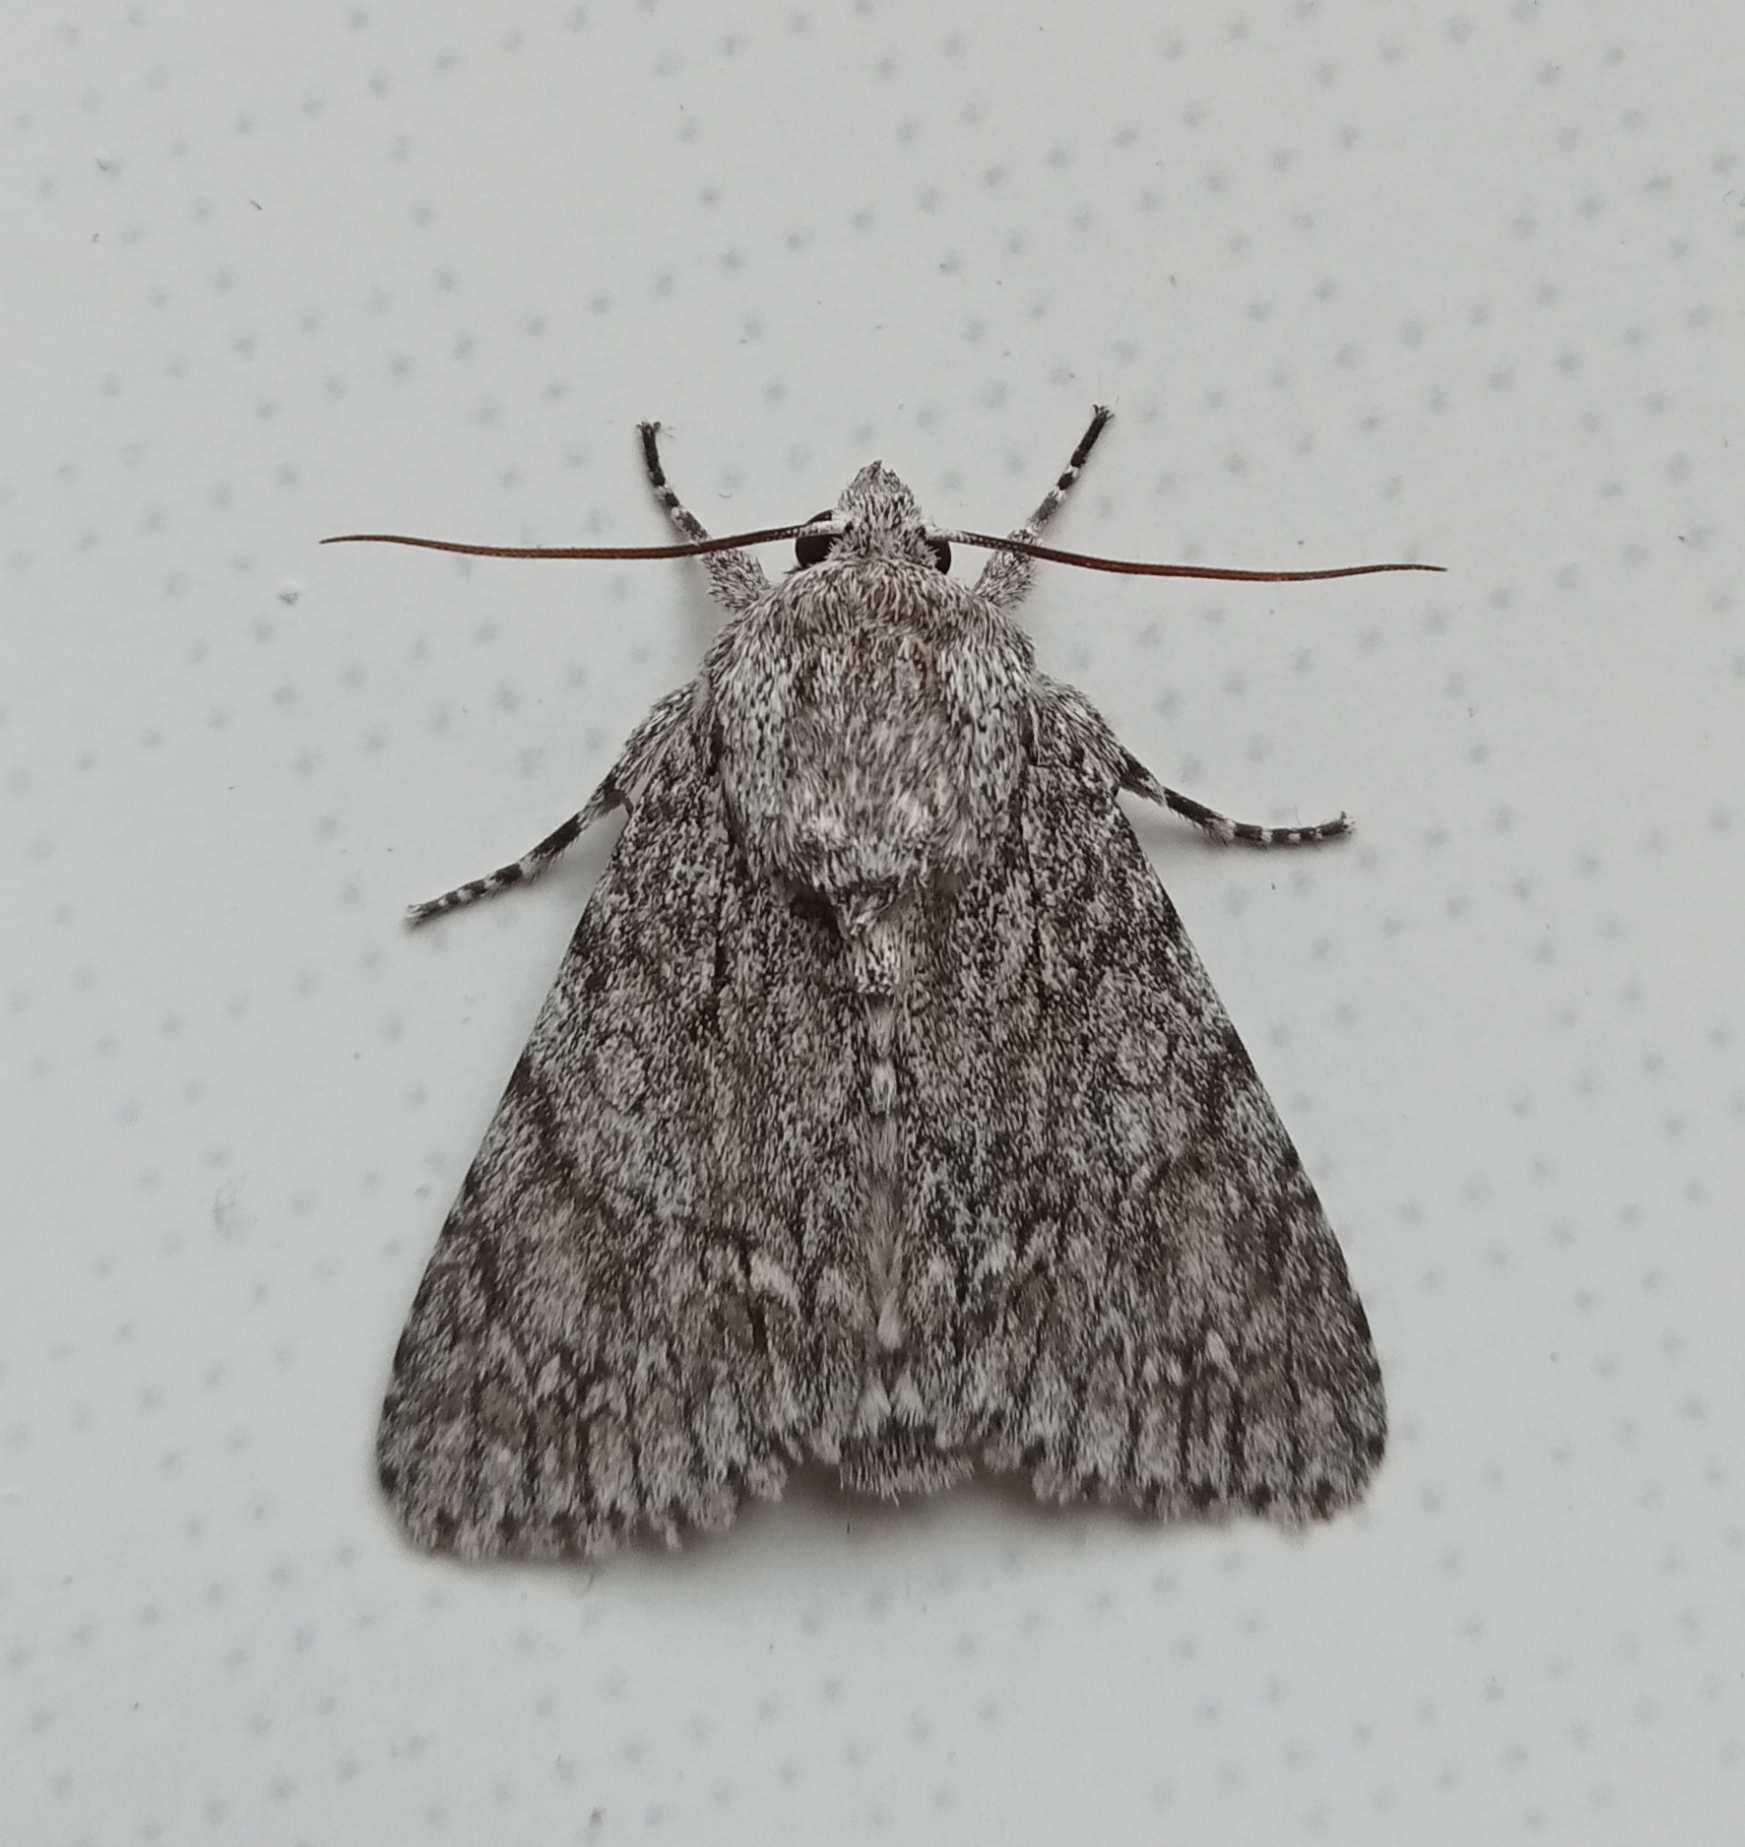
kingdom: Animalia
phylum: Arthropoda
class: Insecta
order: Lepidoptera
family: Noctuidae
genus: Acronicta
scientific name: Acronicta aceris
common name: Sycamore
